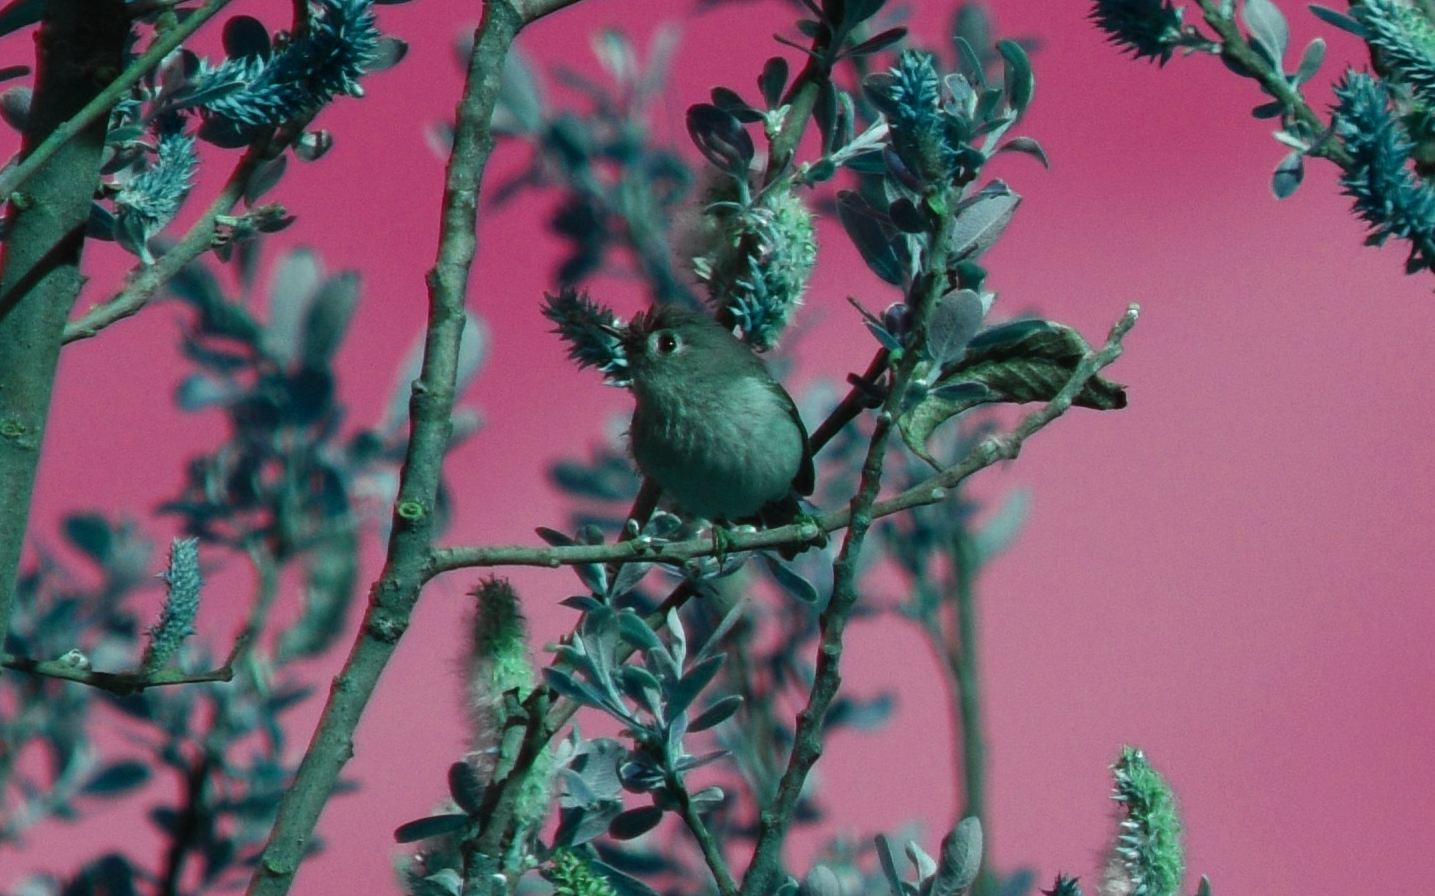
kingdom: Animalia
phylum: Chordata
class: Aves
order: Passeriformes
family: Regulidae
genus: Regulus
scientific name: Regulus calendula
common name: Ruby-crowned kinglet
